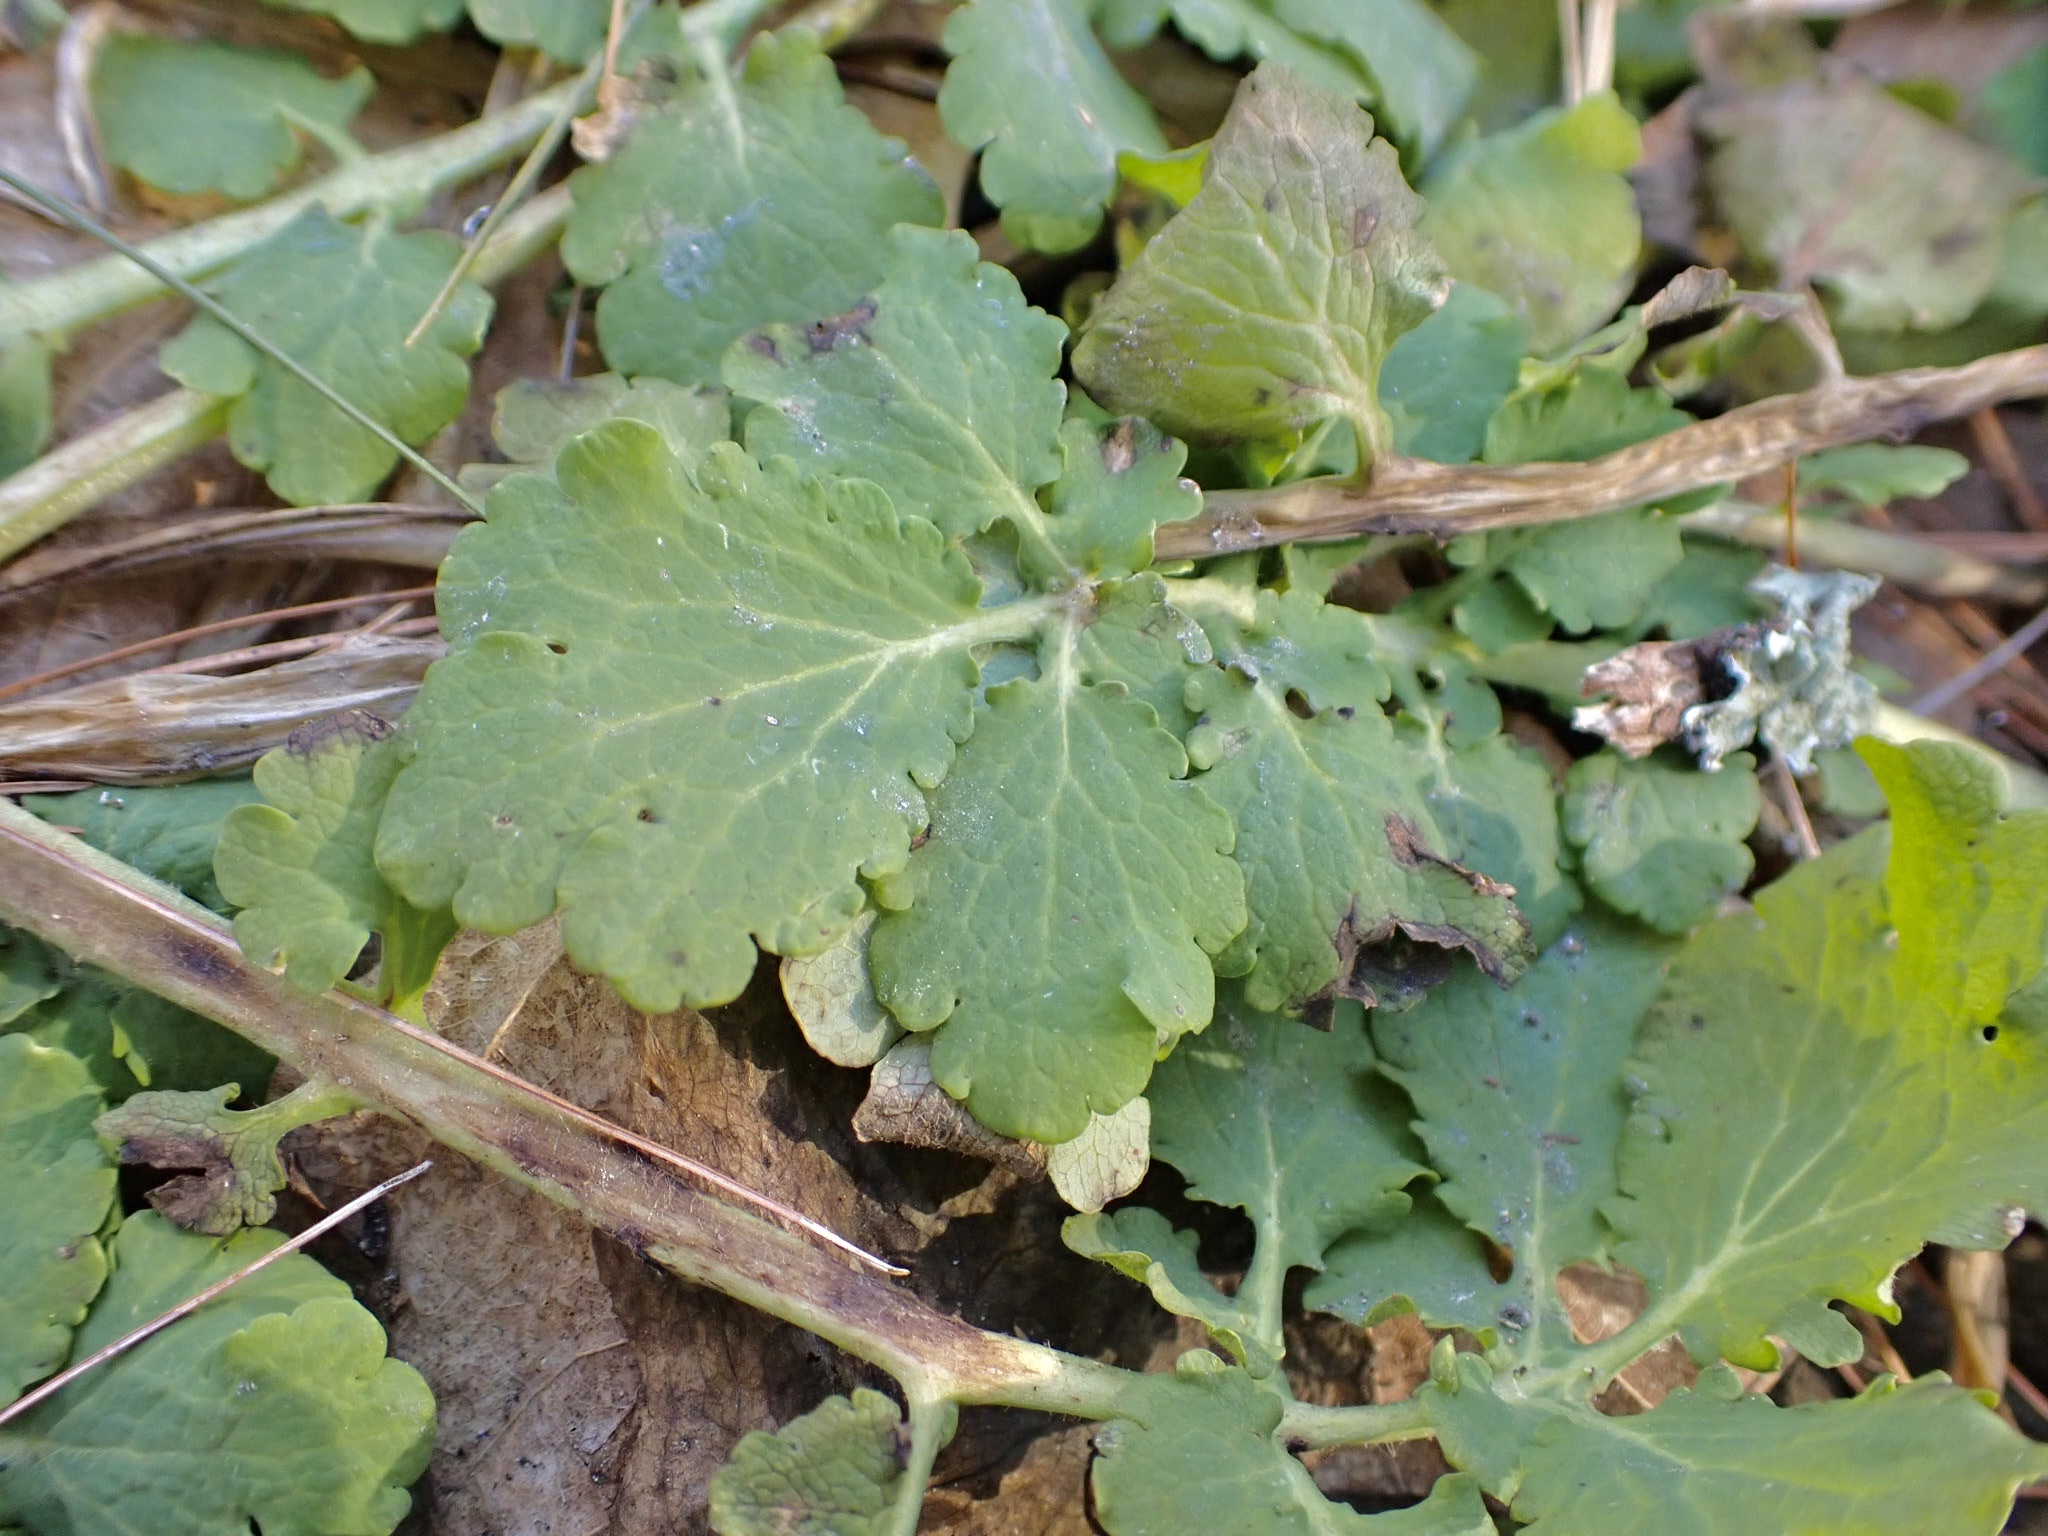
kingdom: Plantae
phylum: Tracheophyta
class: Magnoliopsida
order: Ranunculales
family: Papaveraceae
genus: Chelidonium
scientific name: Chelidonium majus
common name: Greater celandine
